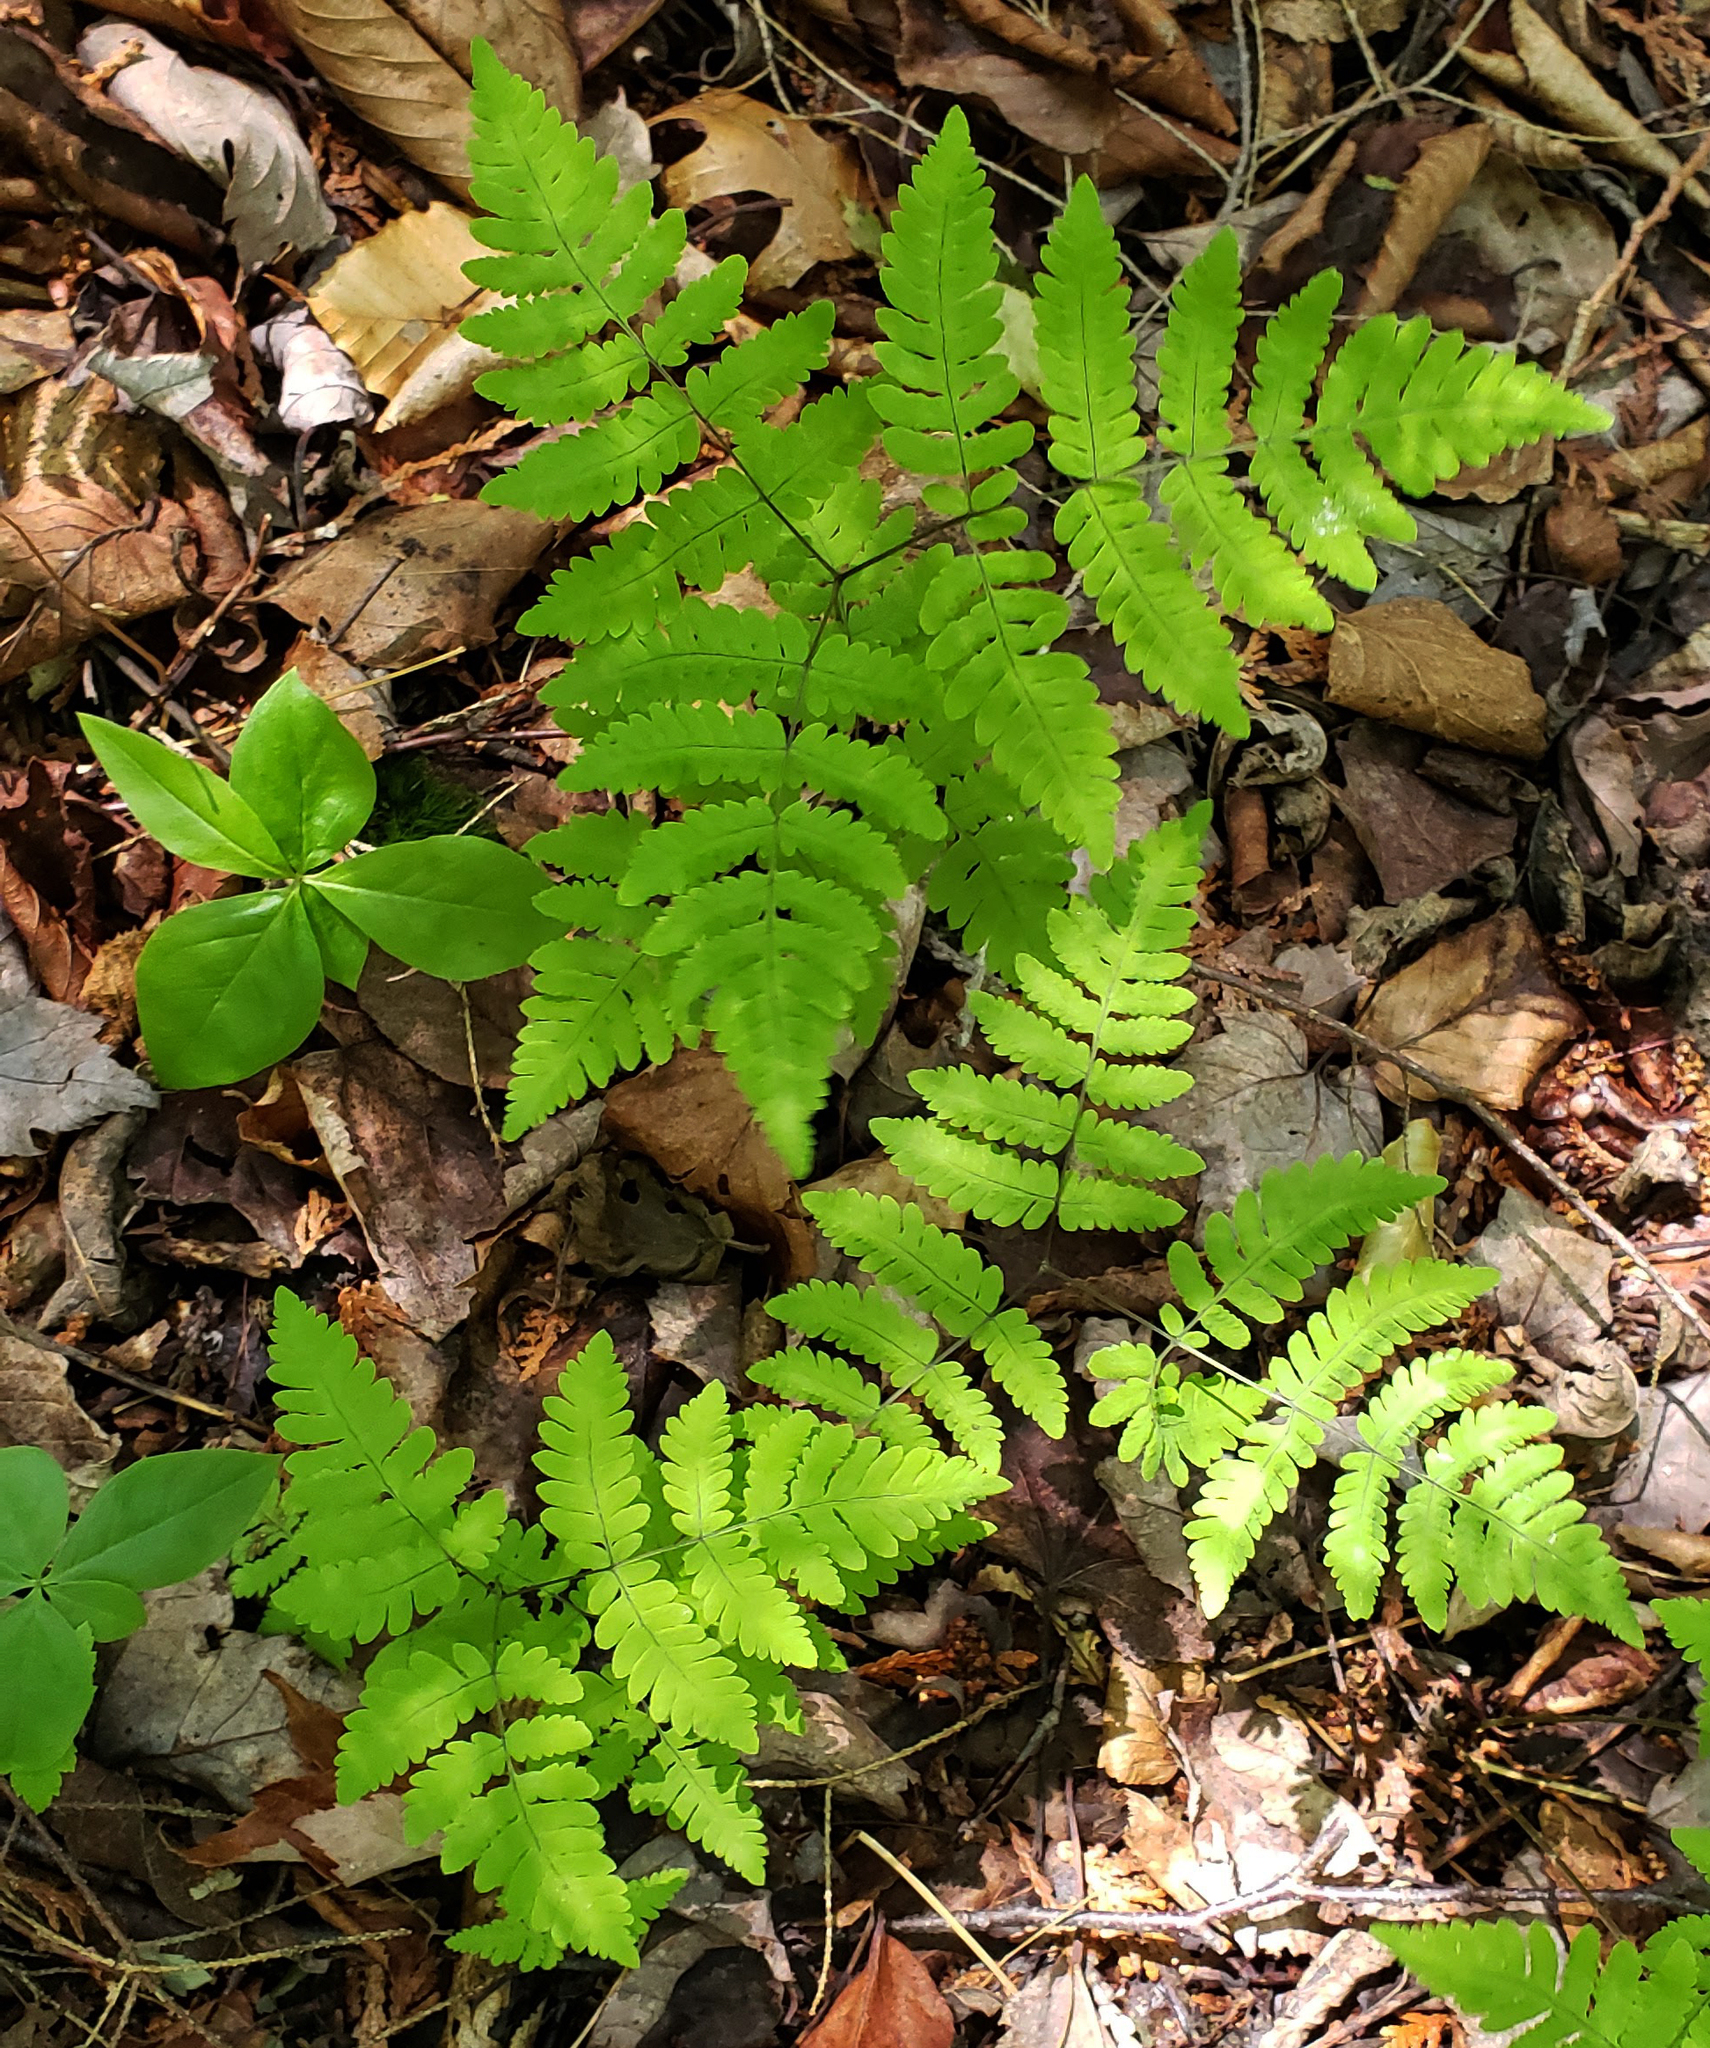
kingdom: Plantae
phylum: Tracheophyta
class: Polypodiopsida
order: Polypodiales
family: Cystopteridaceae
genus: Gymnocarpium
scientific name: Gymnocarpium dryopteris
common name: Oak fern
